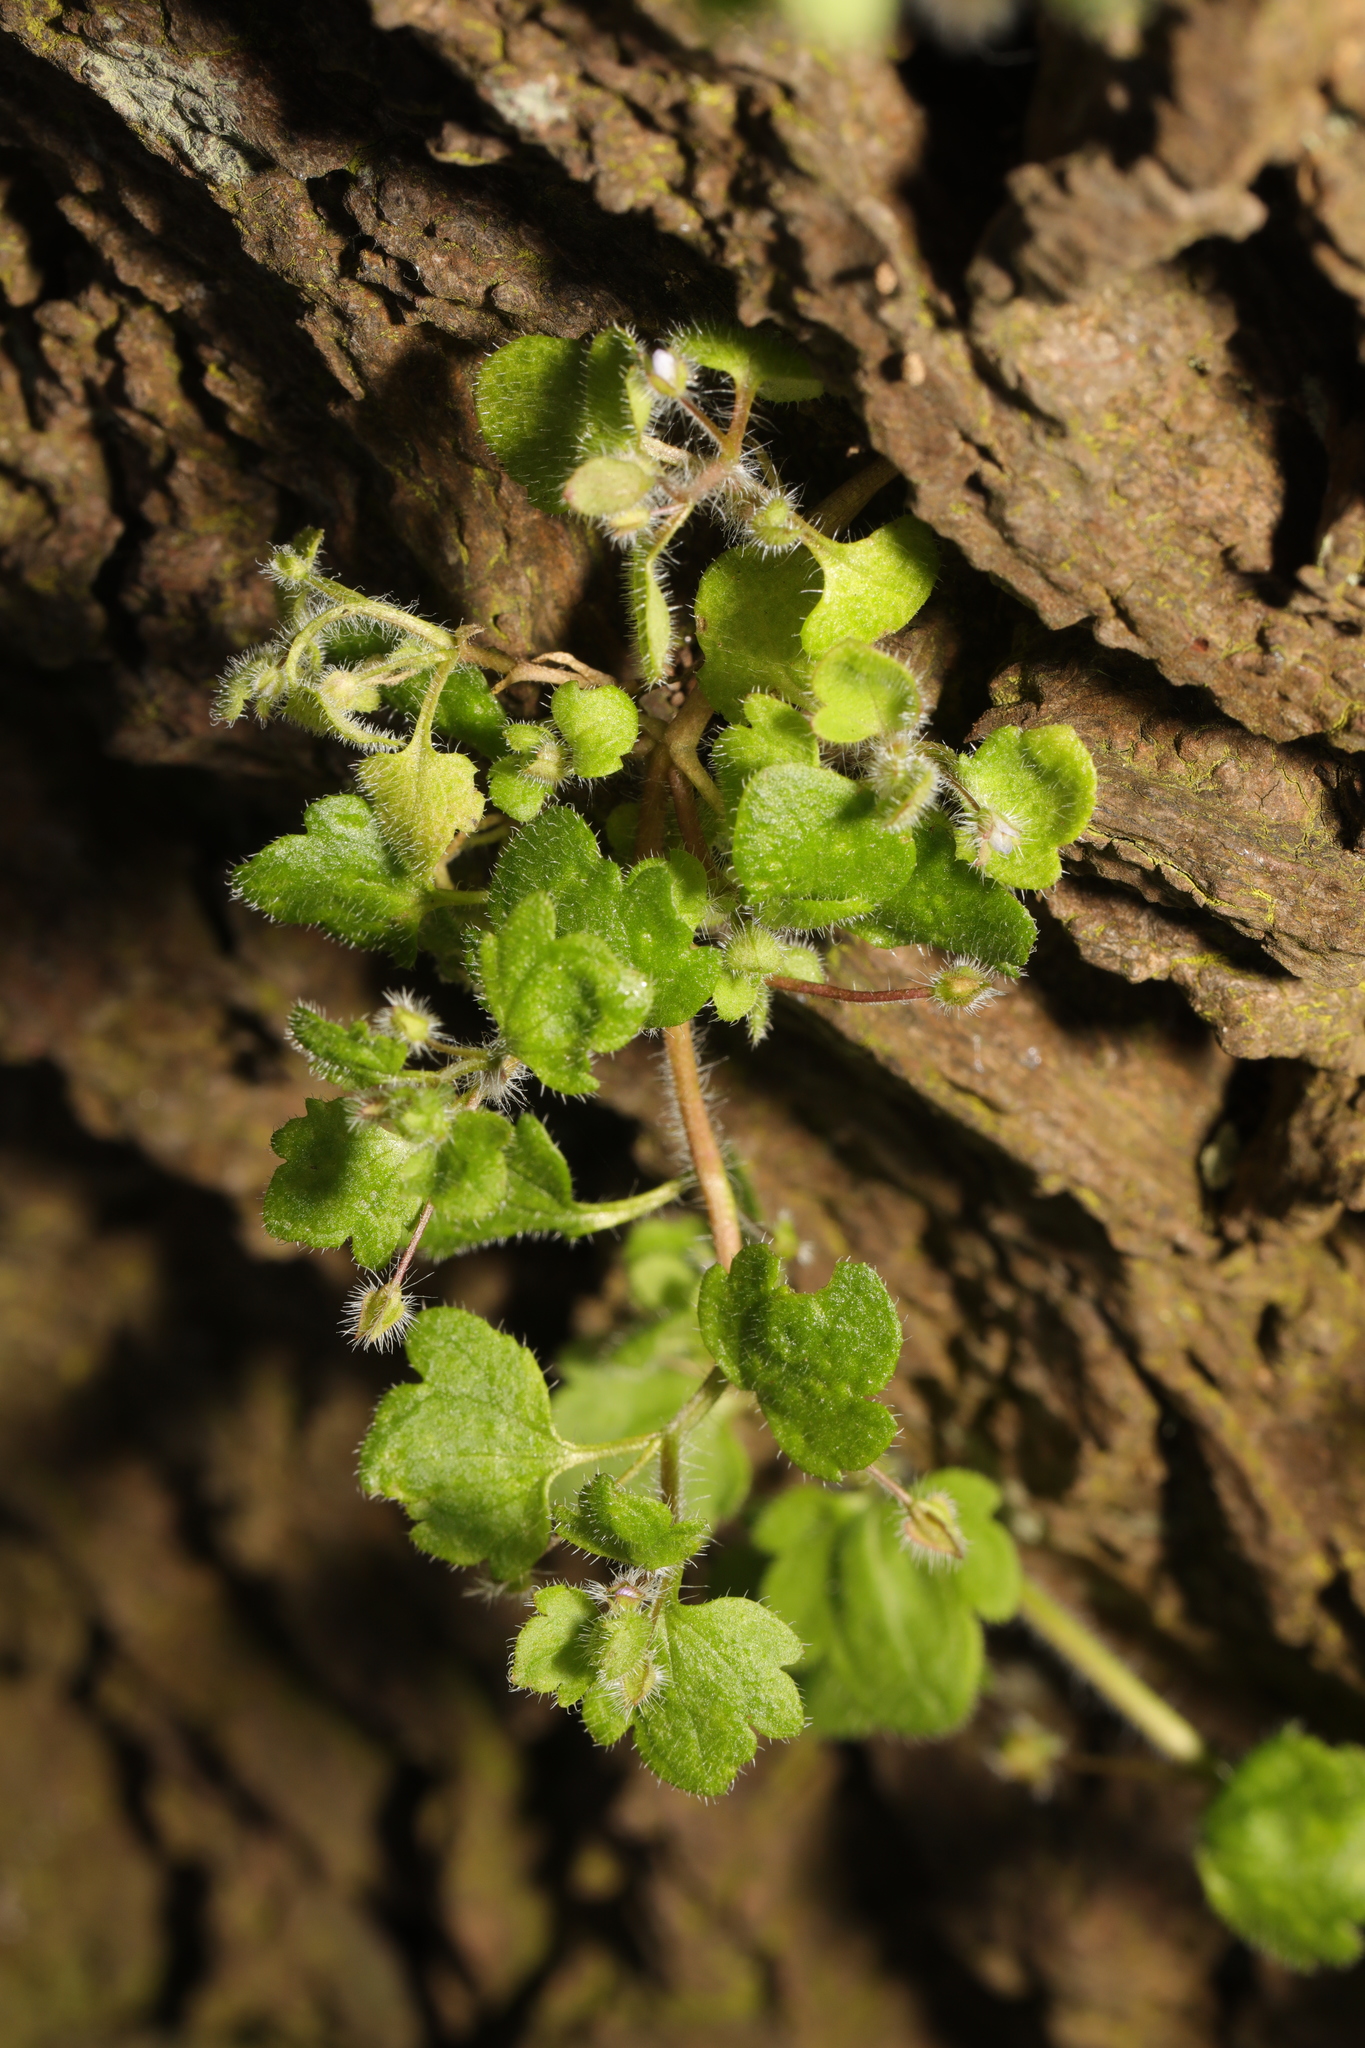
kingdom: Plantae
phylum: Tracheophyta
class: Magnoliopsida
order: Lamiales
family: Plantaginaceae
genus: Veronica
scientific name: Veronica hederifolia
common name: Ivy-leaved speedwell
